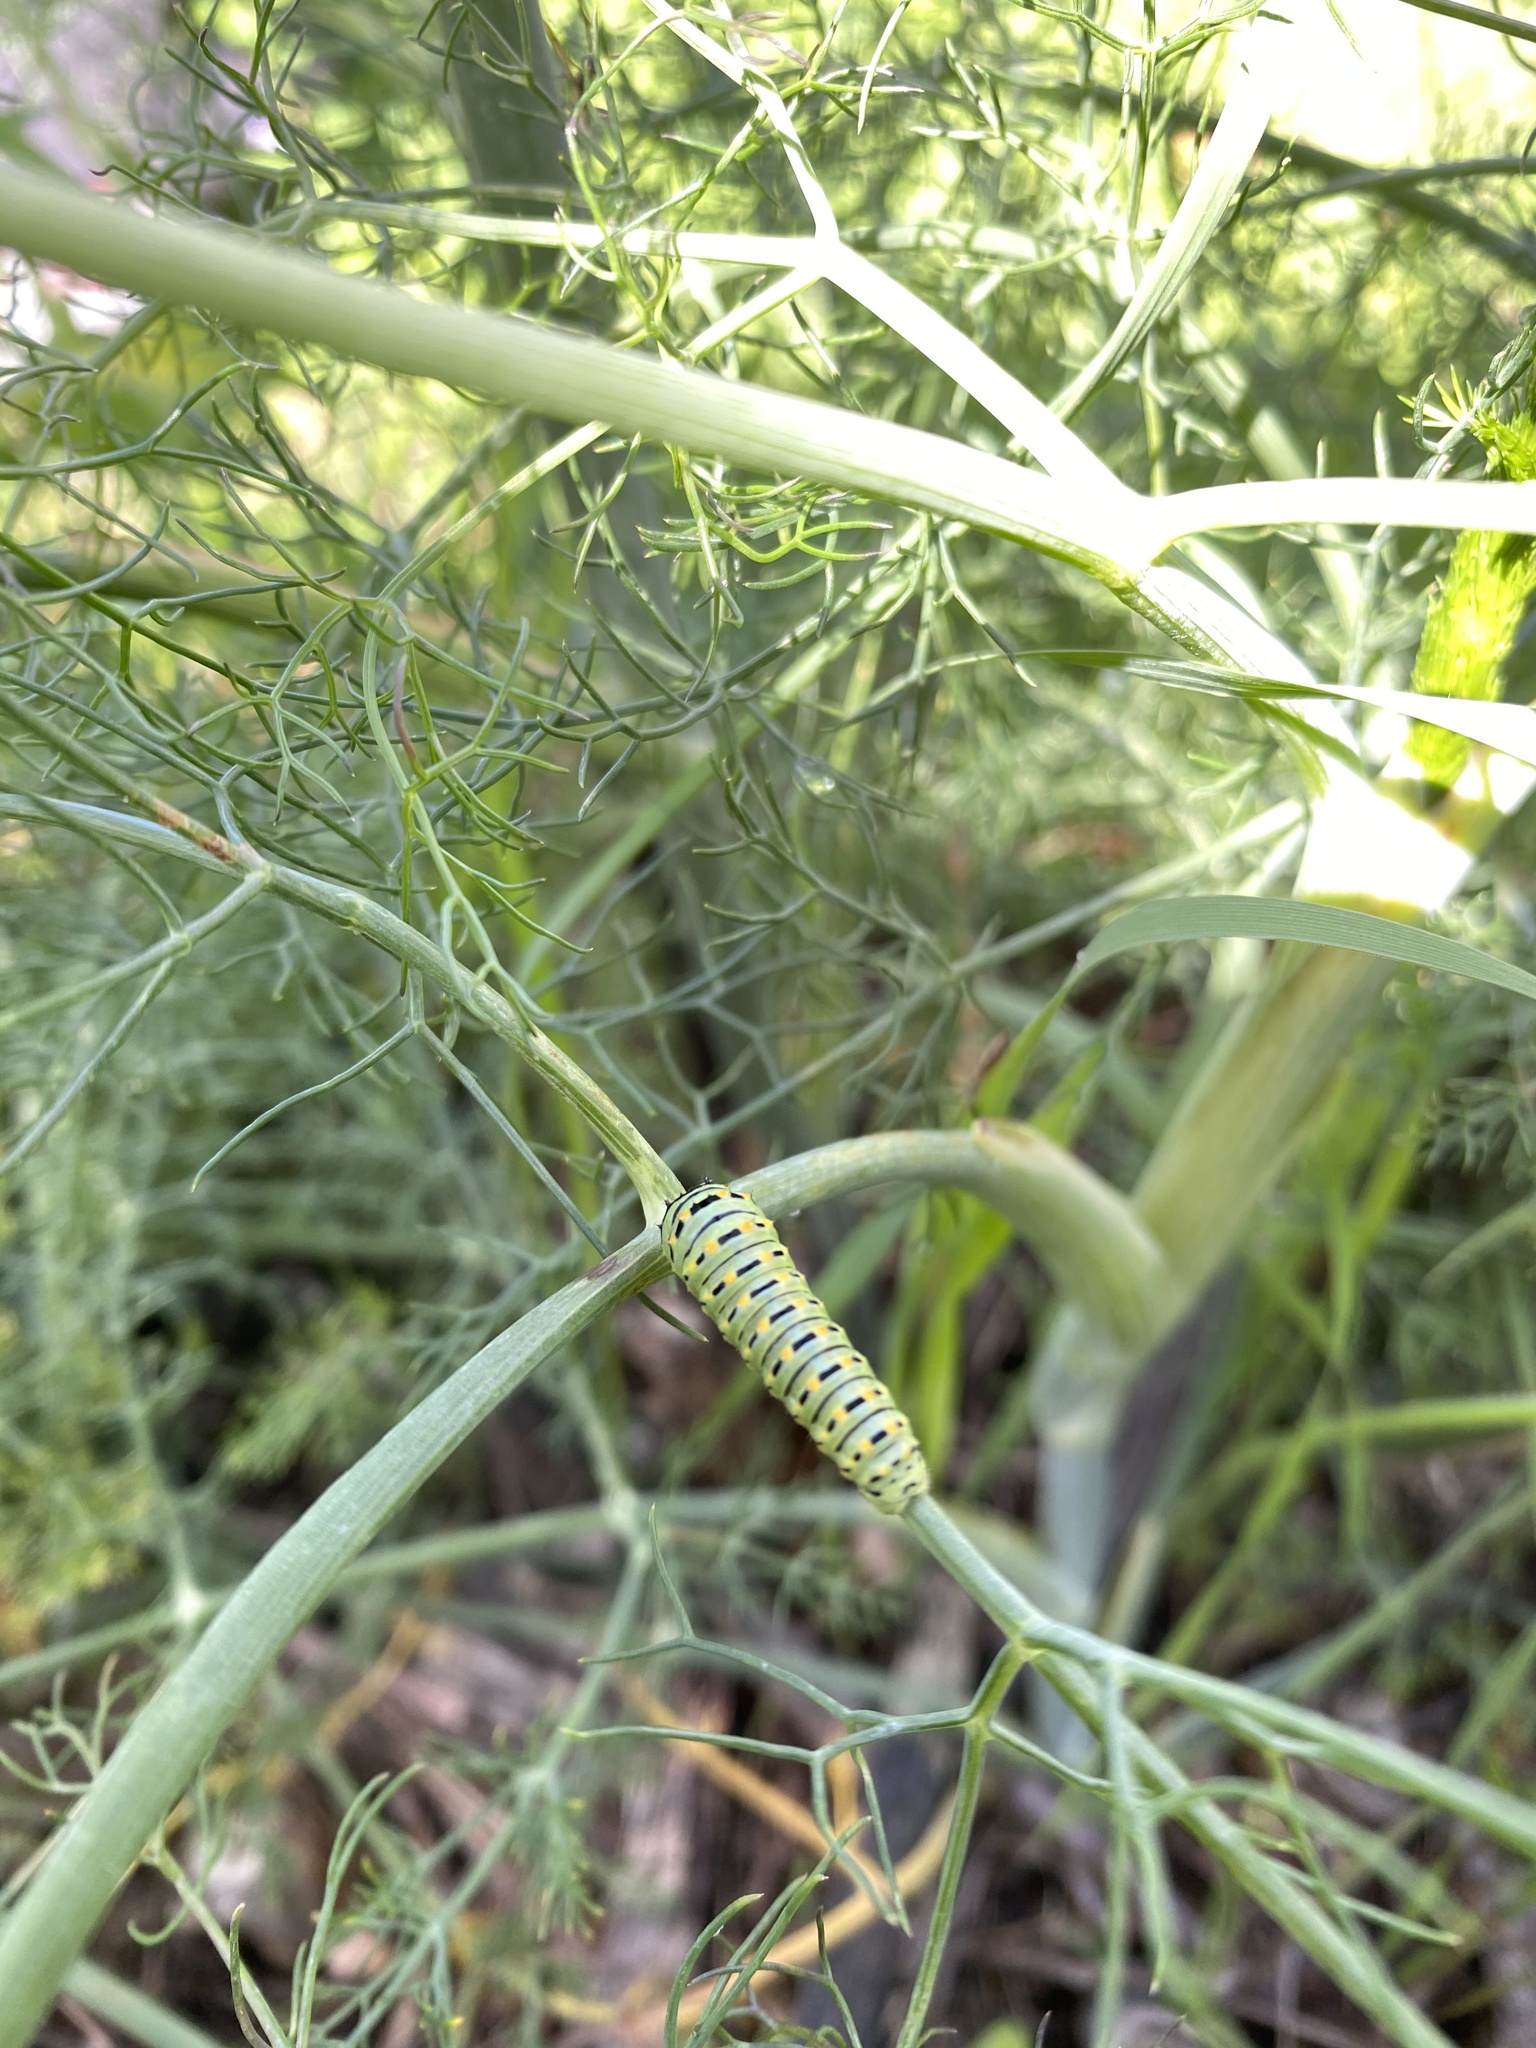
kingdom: Animalia
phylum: Arthropoda
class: Insecta
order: Lepidoptera
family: Papilionidae
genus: Papilio
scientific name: Papilio machaon
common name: Swallowtail
